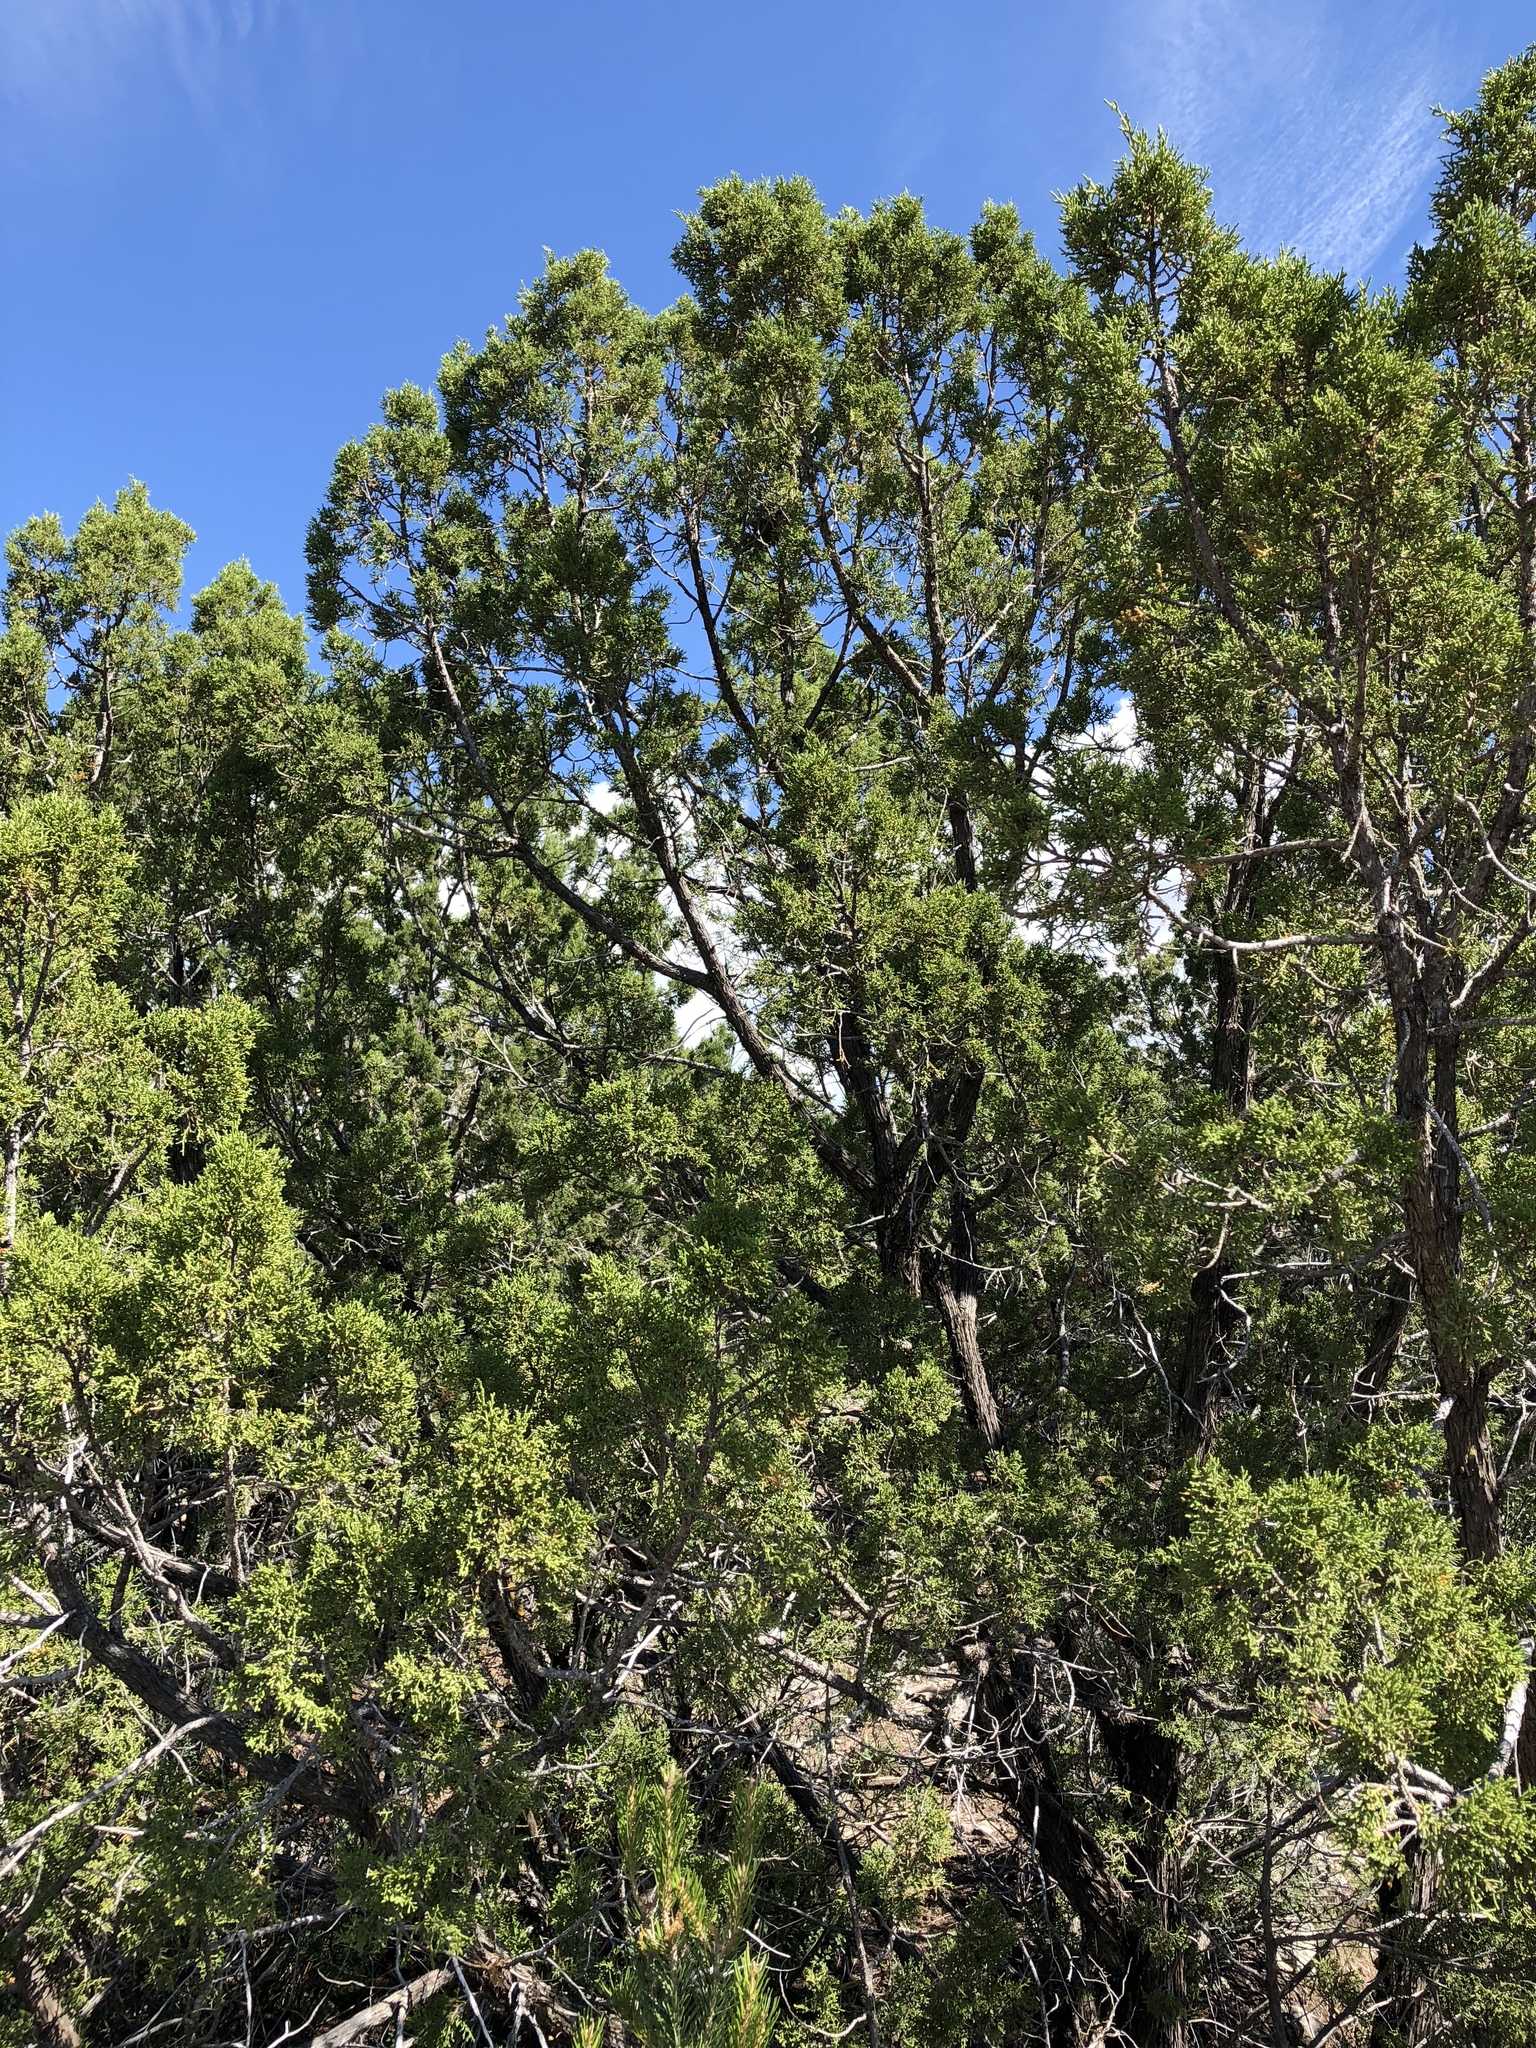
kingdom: Plantae
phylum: Tracheophyta
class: Pinopsida
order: Pinales
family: Cupressaceae
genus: Juniperus
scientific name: Juniperus monosperma
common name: One-seed juniper
